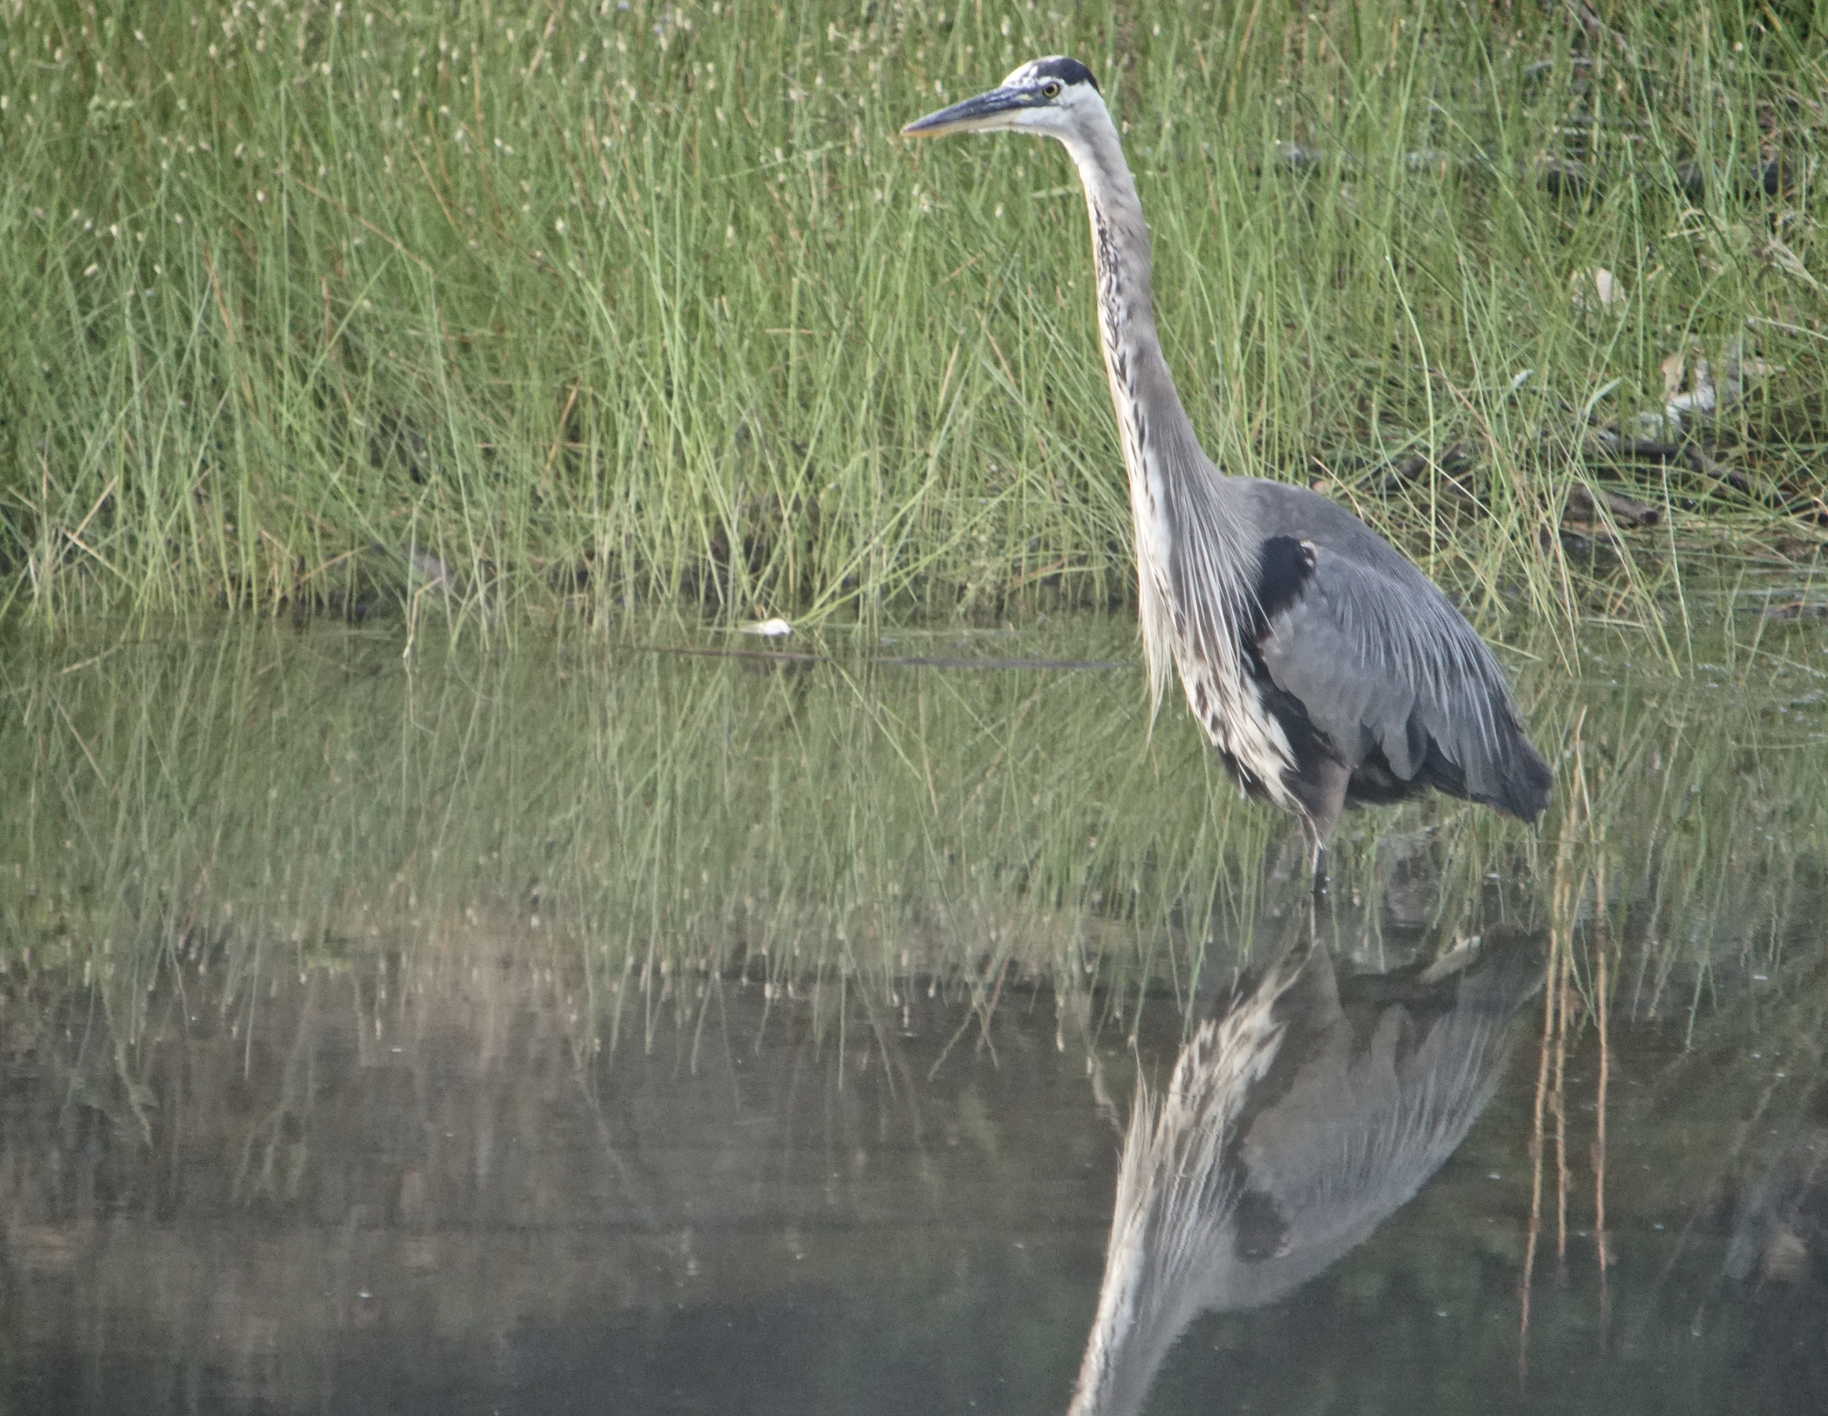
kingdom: Animalia
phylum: Chordata
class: Aves
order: Pelecaniformes
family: Ardeidae
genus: Ardea
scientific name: Ardea herodias
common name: Great blue heron
